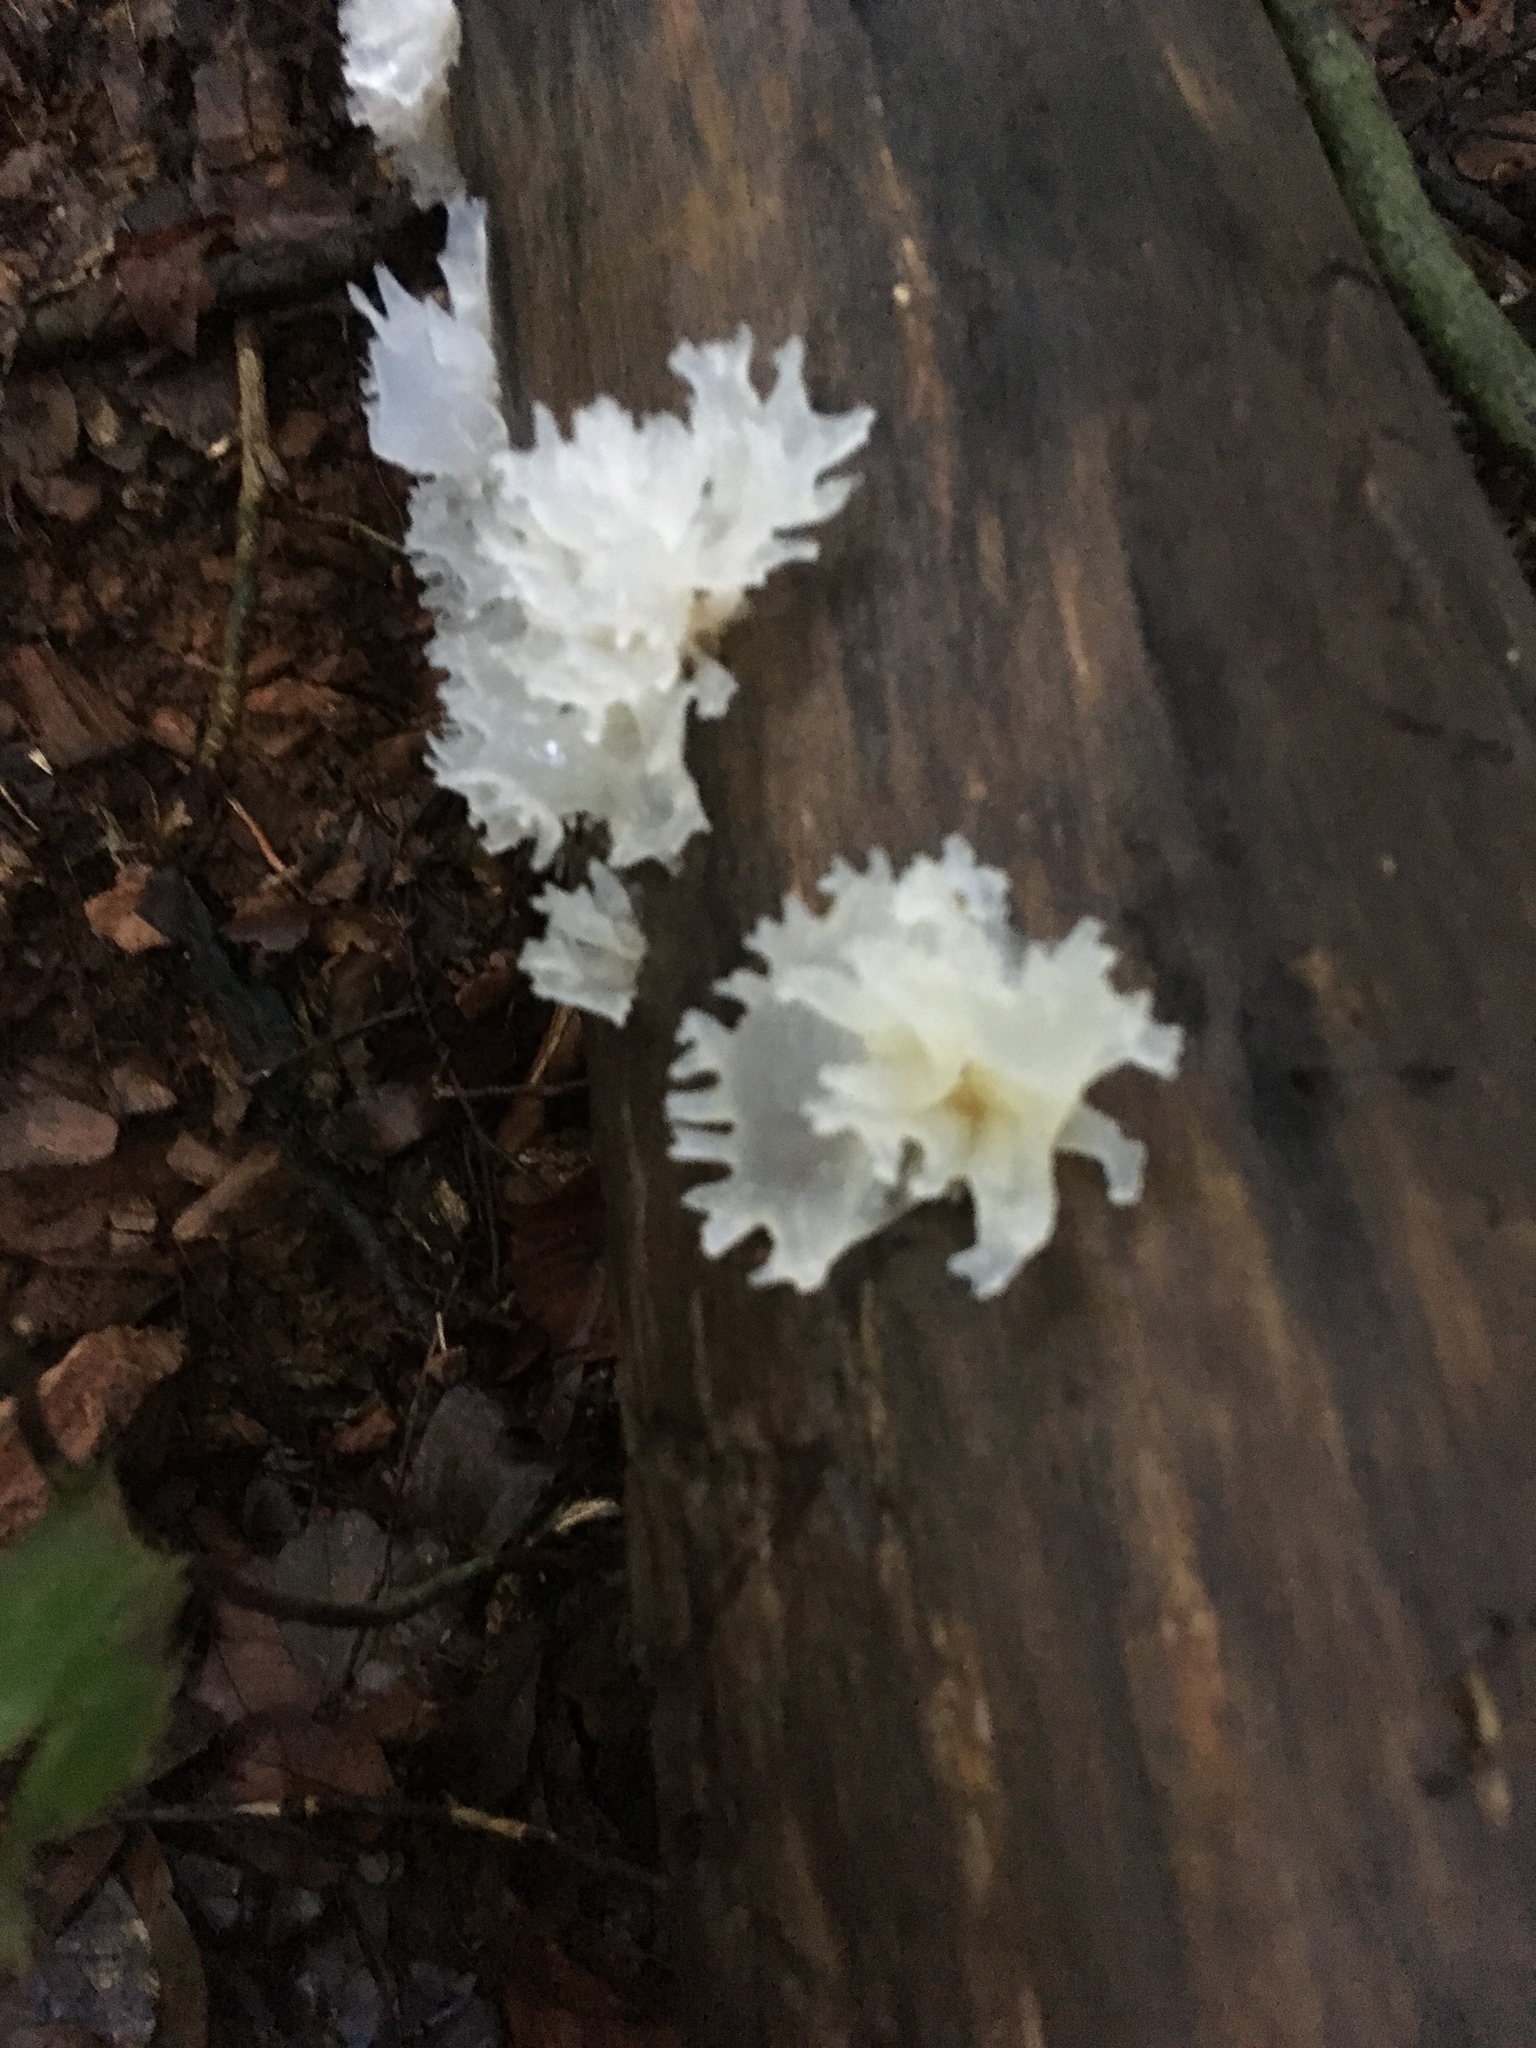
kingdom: Fungi
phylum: Basidiomycota
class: Tremellomycetes
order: Tremellales
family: Tremellaceae
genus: Tremella
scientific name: Tremella fuciformis
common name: Snow fungus
